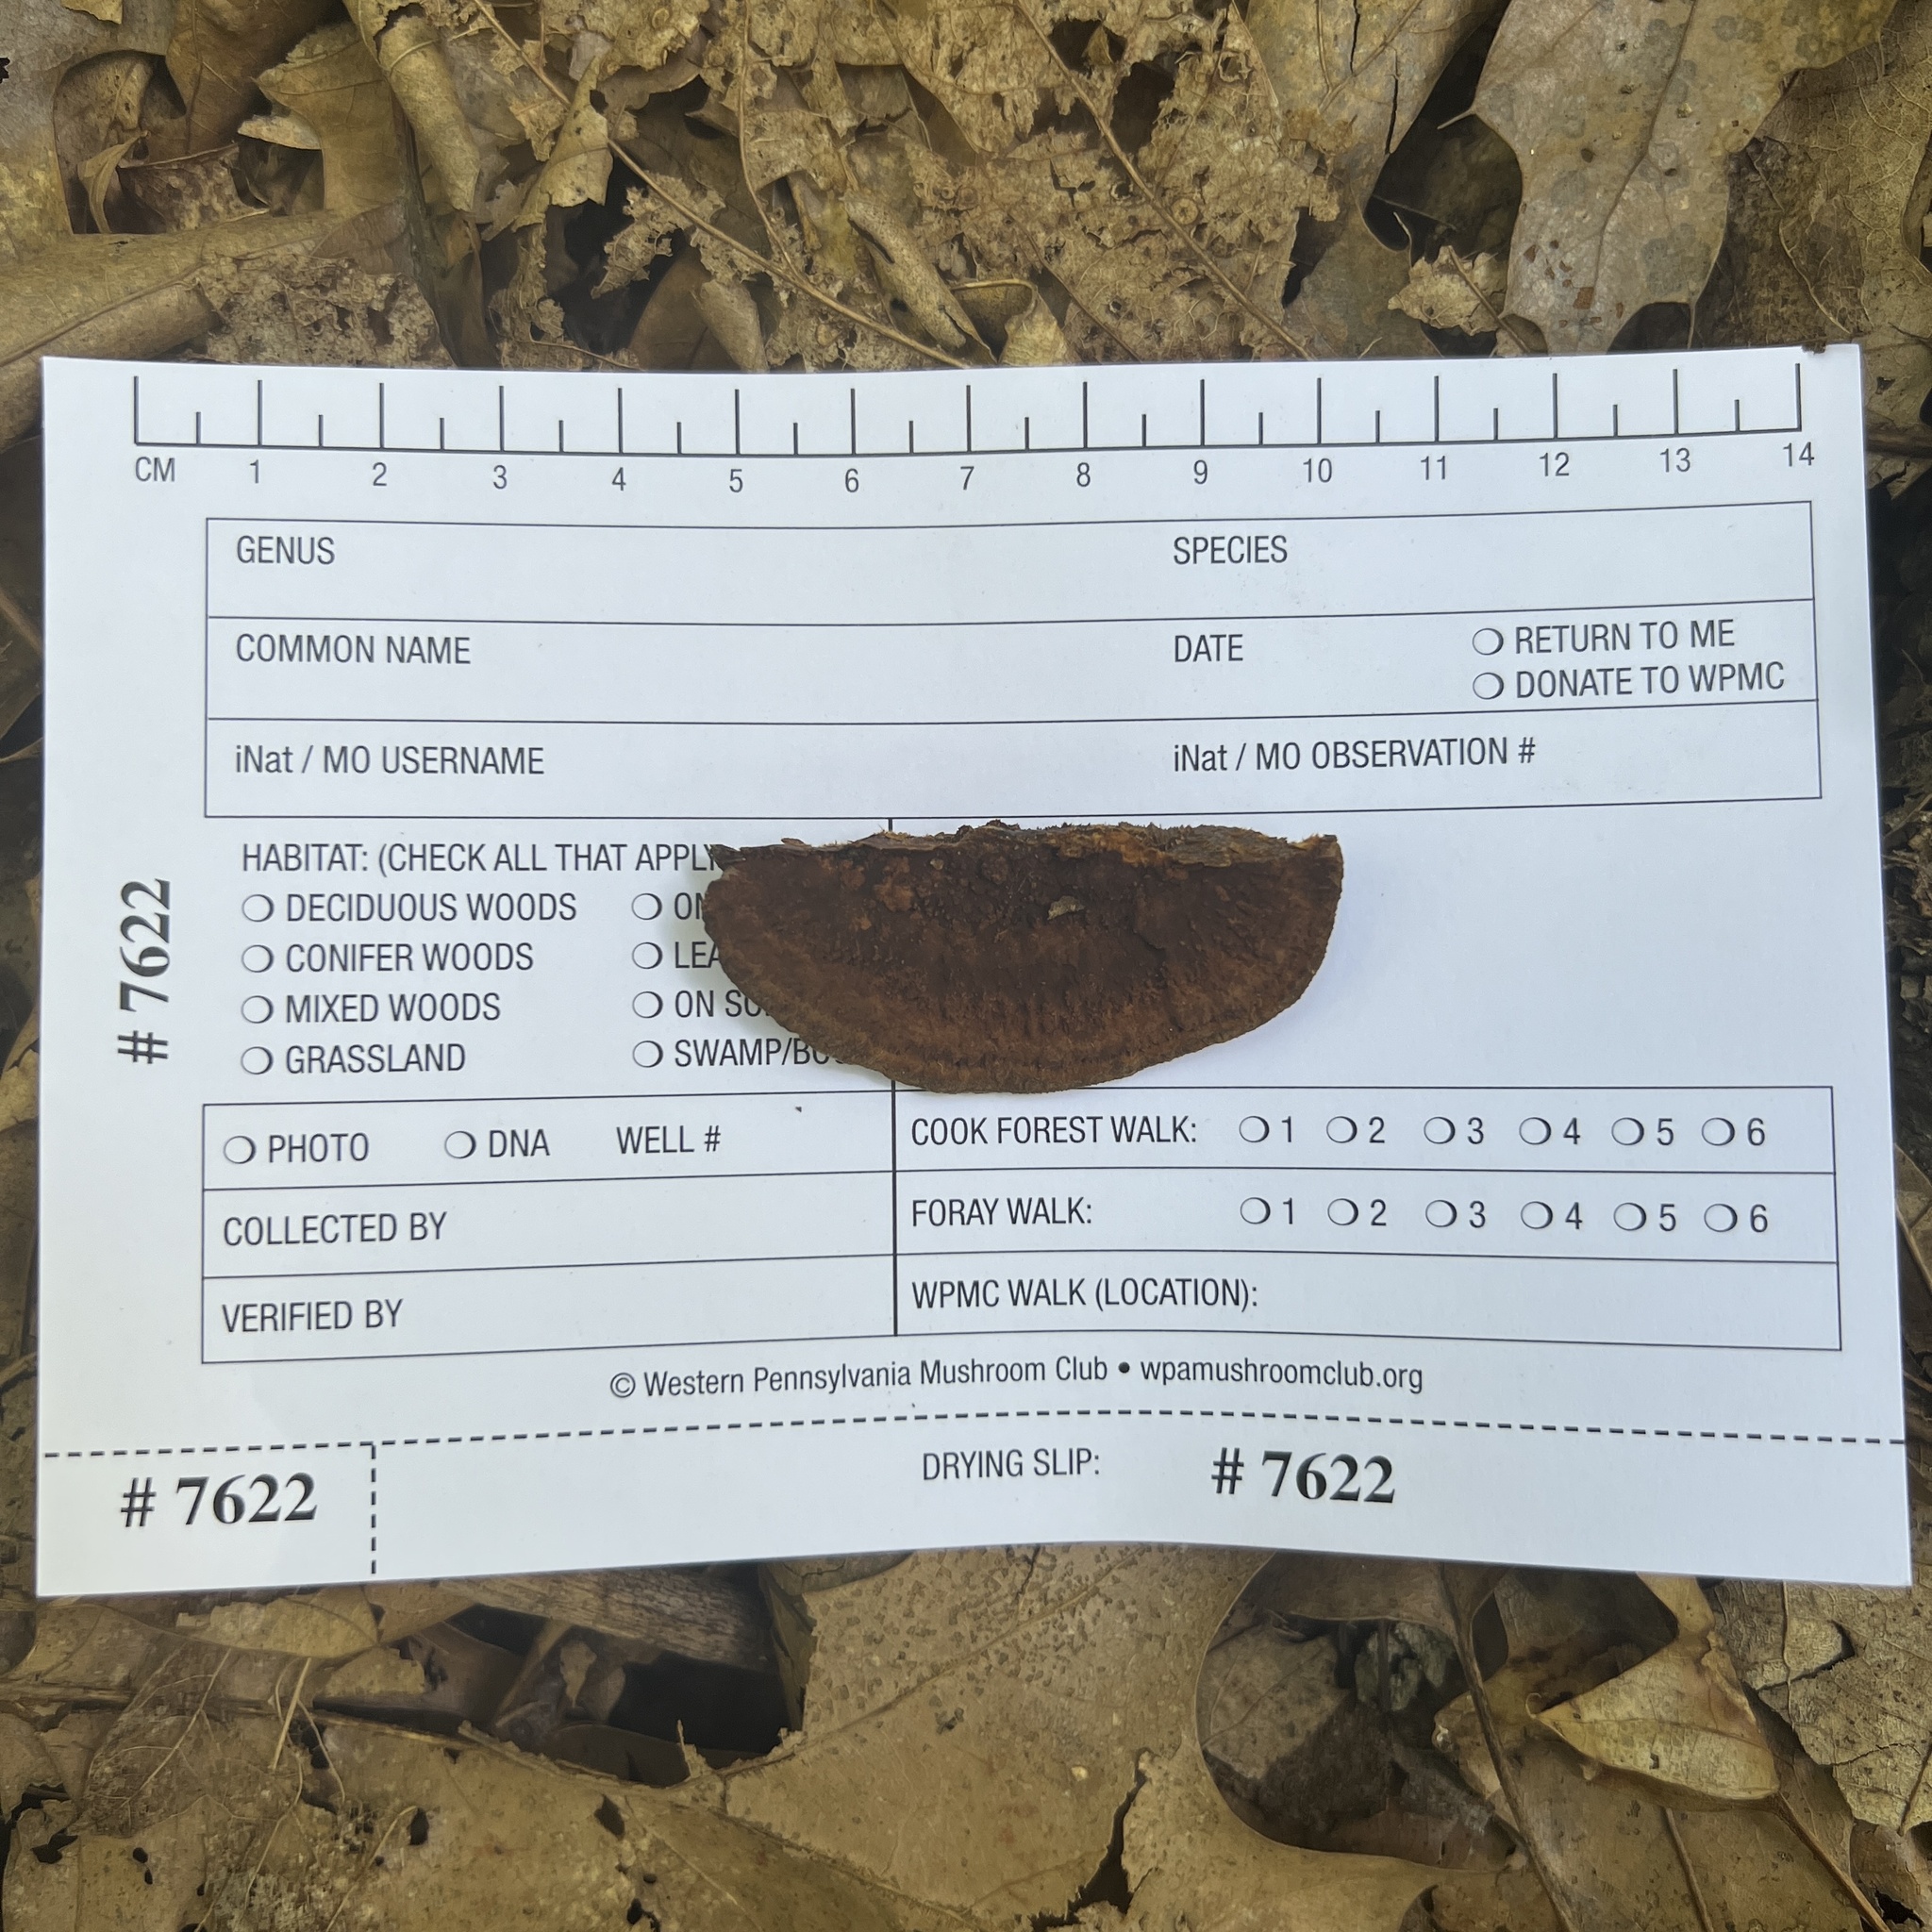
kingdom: Fungi
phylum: Basidiomycota
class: Agaricomycetes
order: Hymenochaetales
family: Hymenochaetaceae
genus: Phellinus
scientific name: Phellinus gilvus
